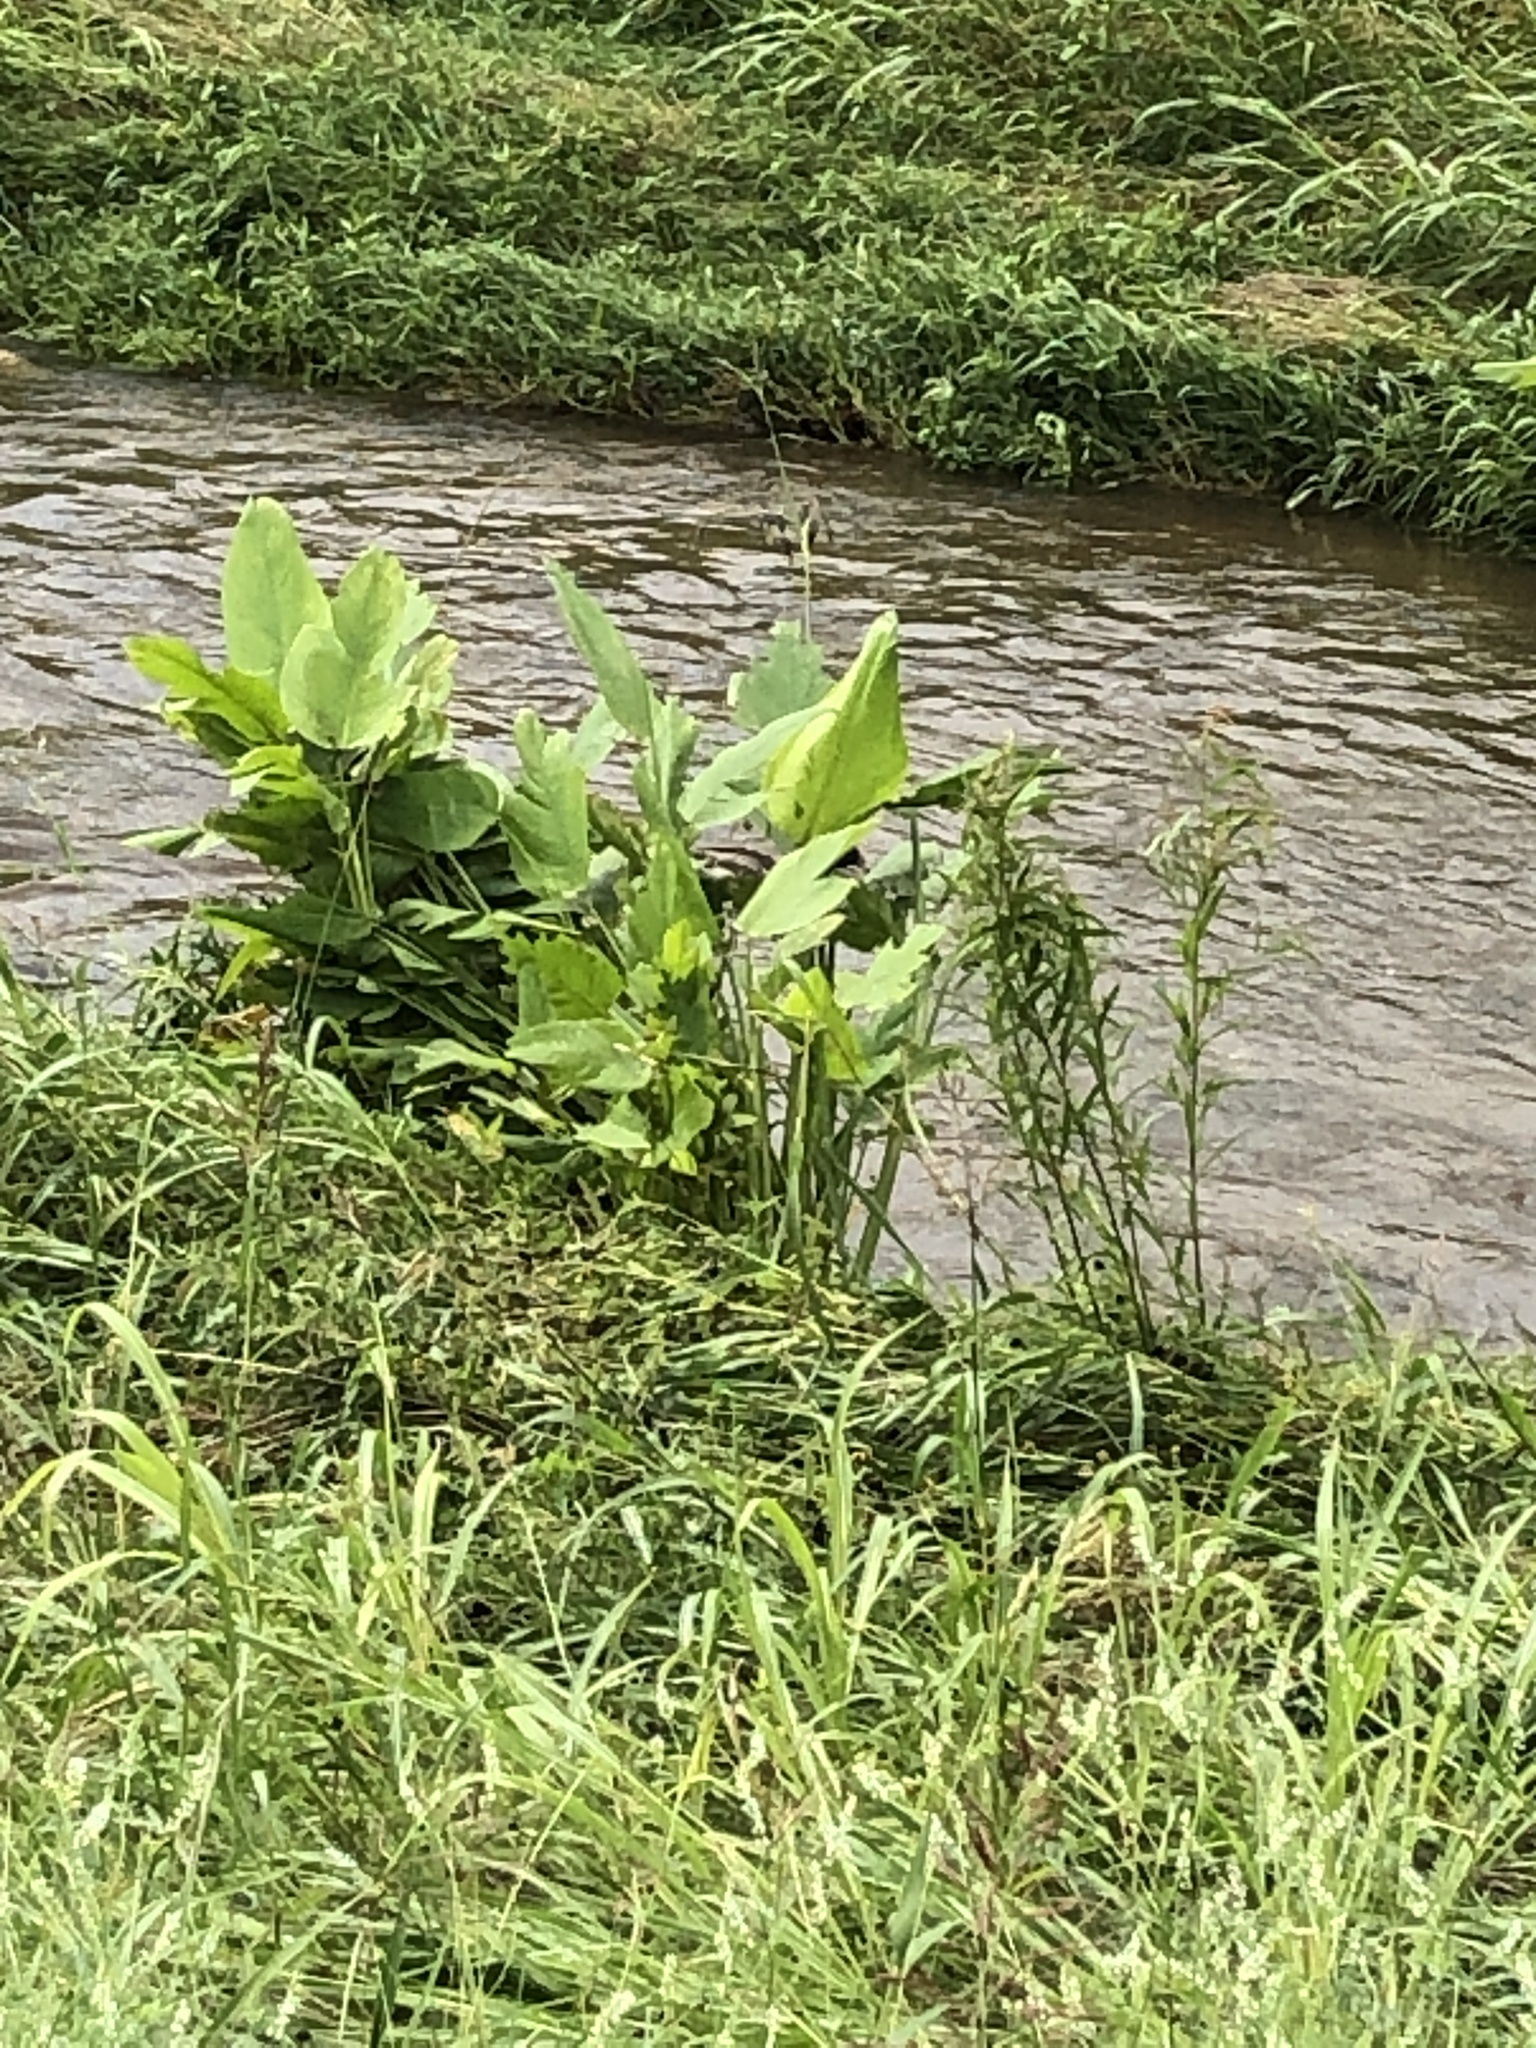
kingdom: Plantae
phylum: Tracheophyta
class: Liliopsida
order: Zingiberales
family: Marantaceae
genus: Thalia
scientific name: Thalia geniculata
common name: Arrowroot
